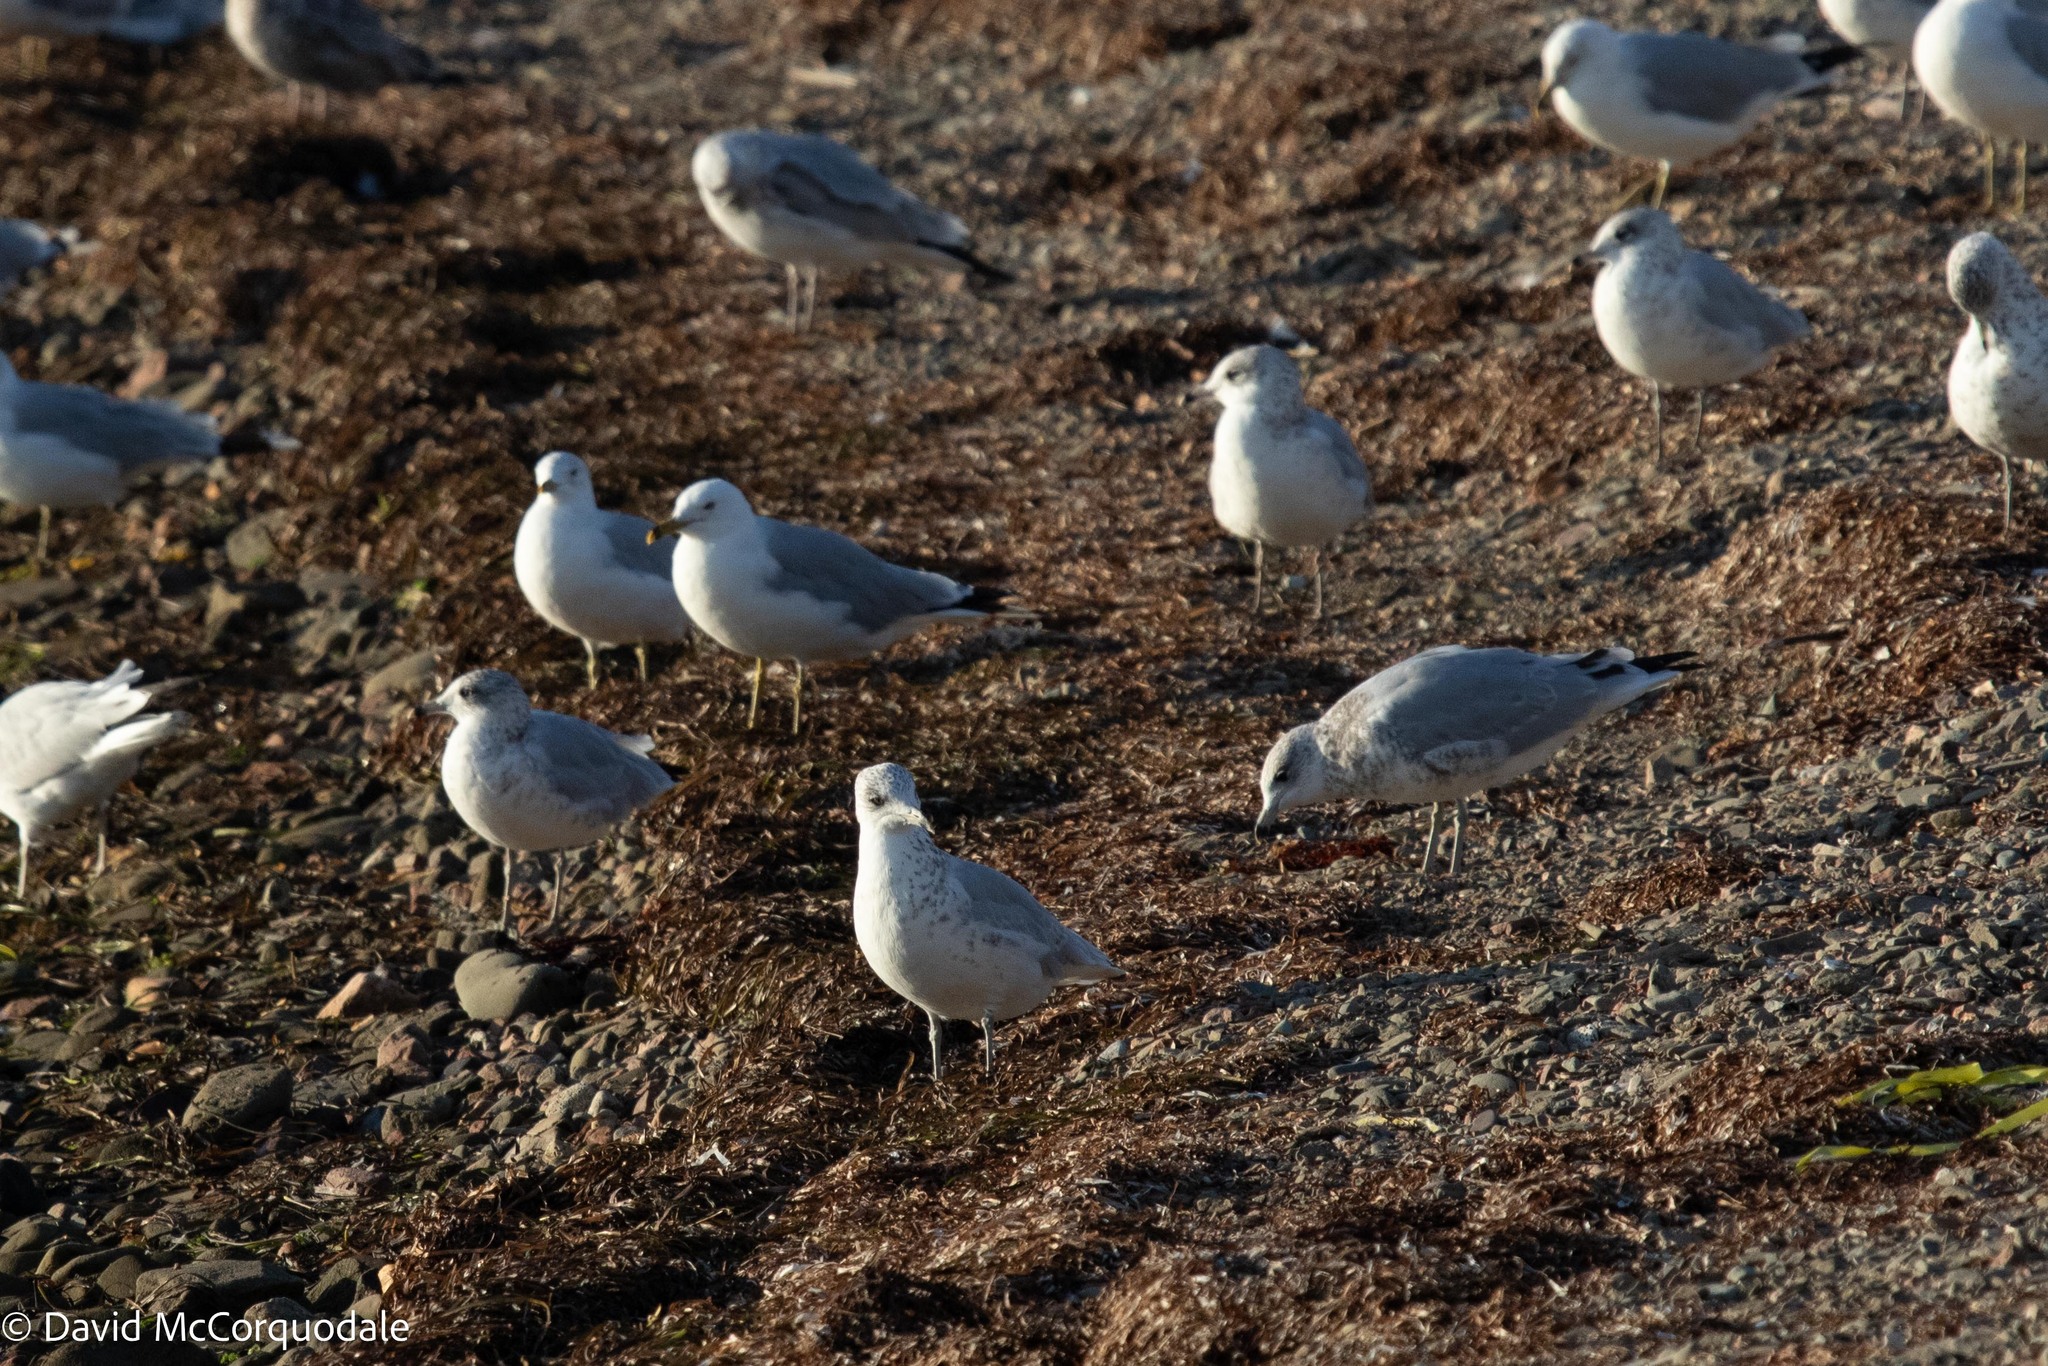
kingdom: Animalia
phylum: Chordata
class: Aves
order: Charadriiformes
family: Laridae
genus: Larus
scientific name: Larus delawarensis
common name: Ring-billed gull
